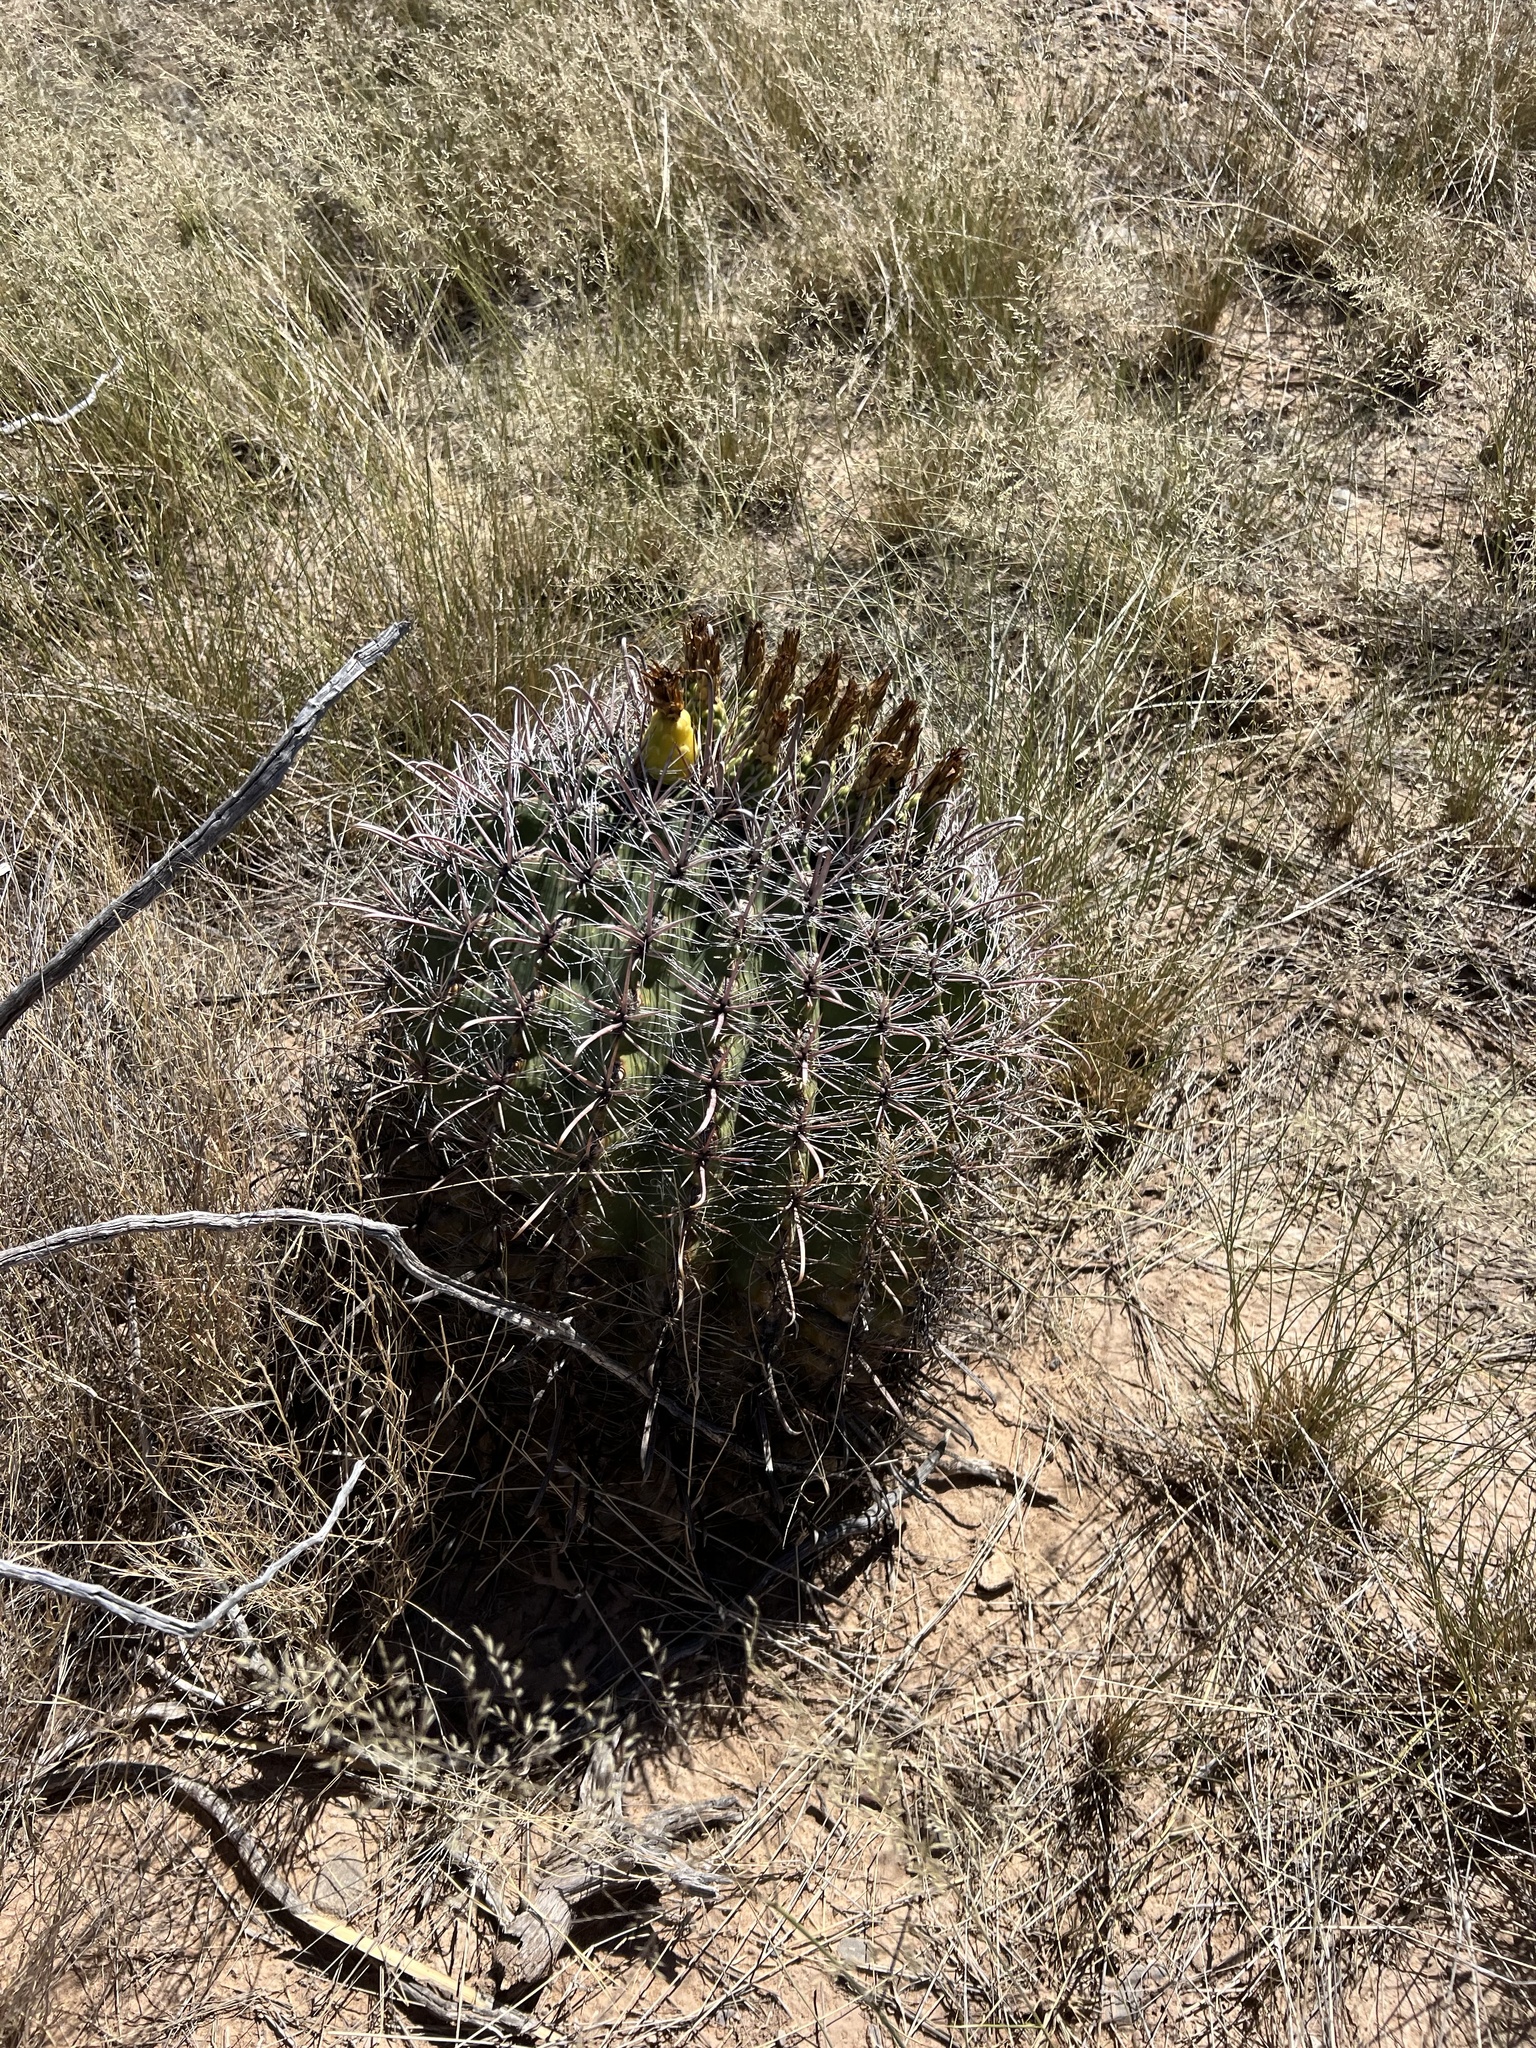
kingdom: Plantae
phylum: Tracheophyta
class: Magnoliopsida
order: Caryophyllales
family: Cactaceae
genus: Ferocactus
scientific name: Ferocactus wislizeni
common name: Candy barrel cactus
